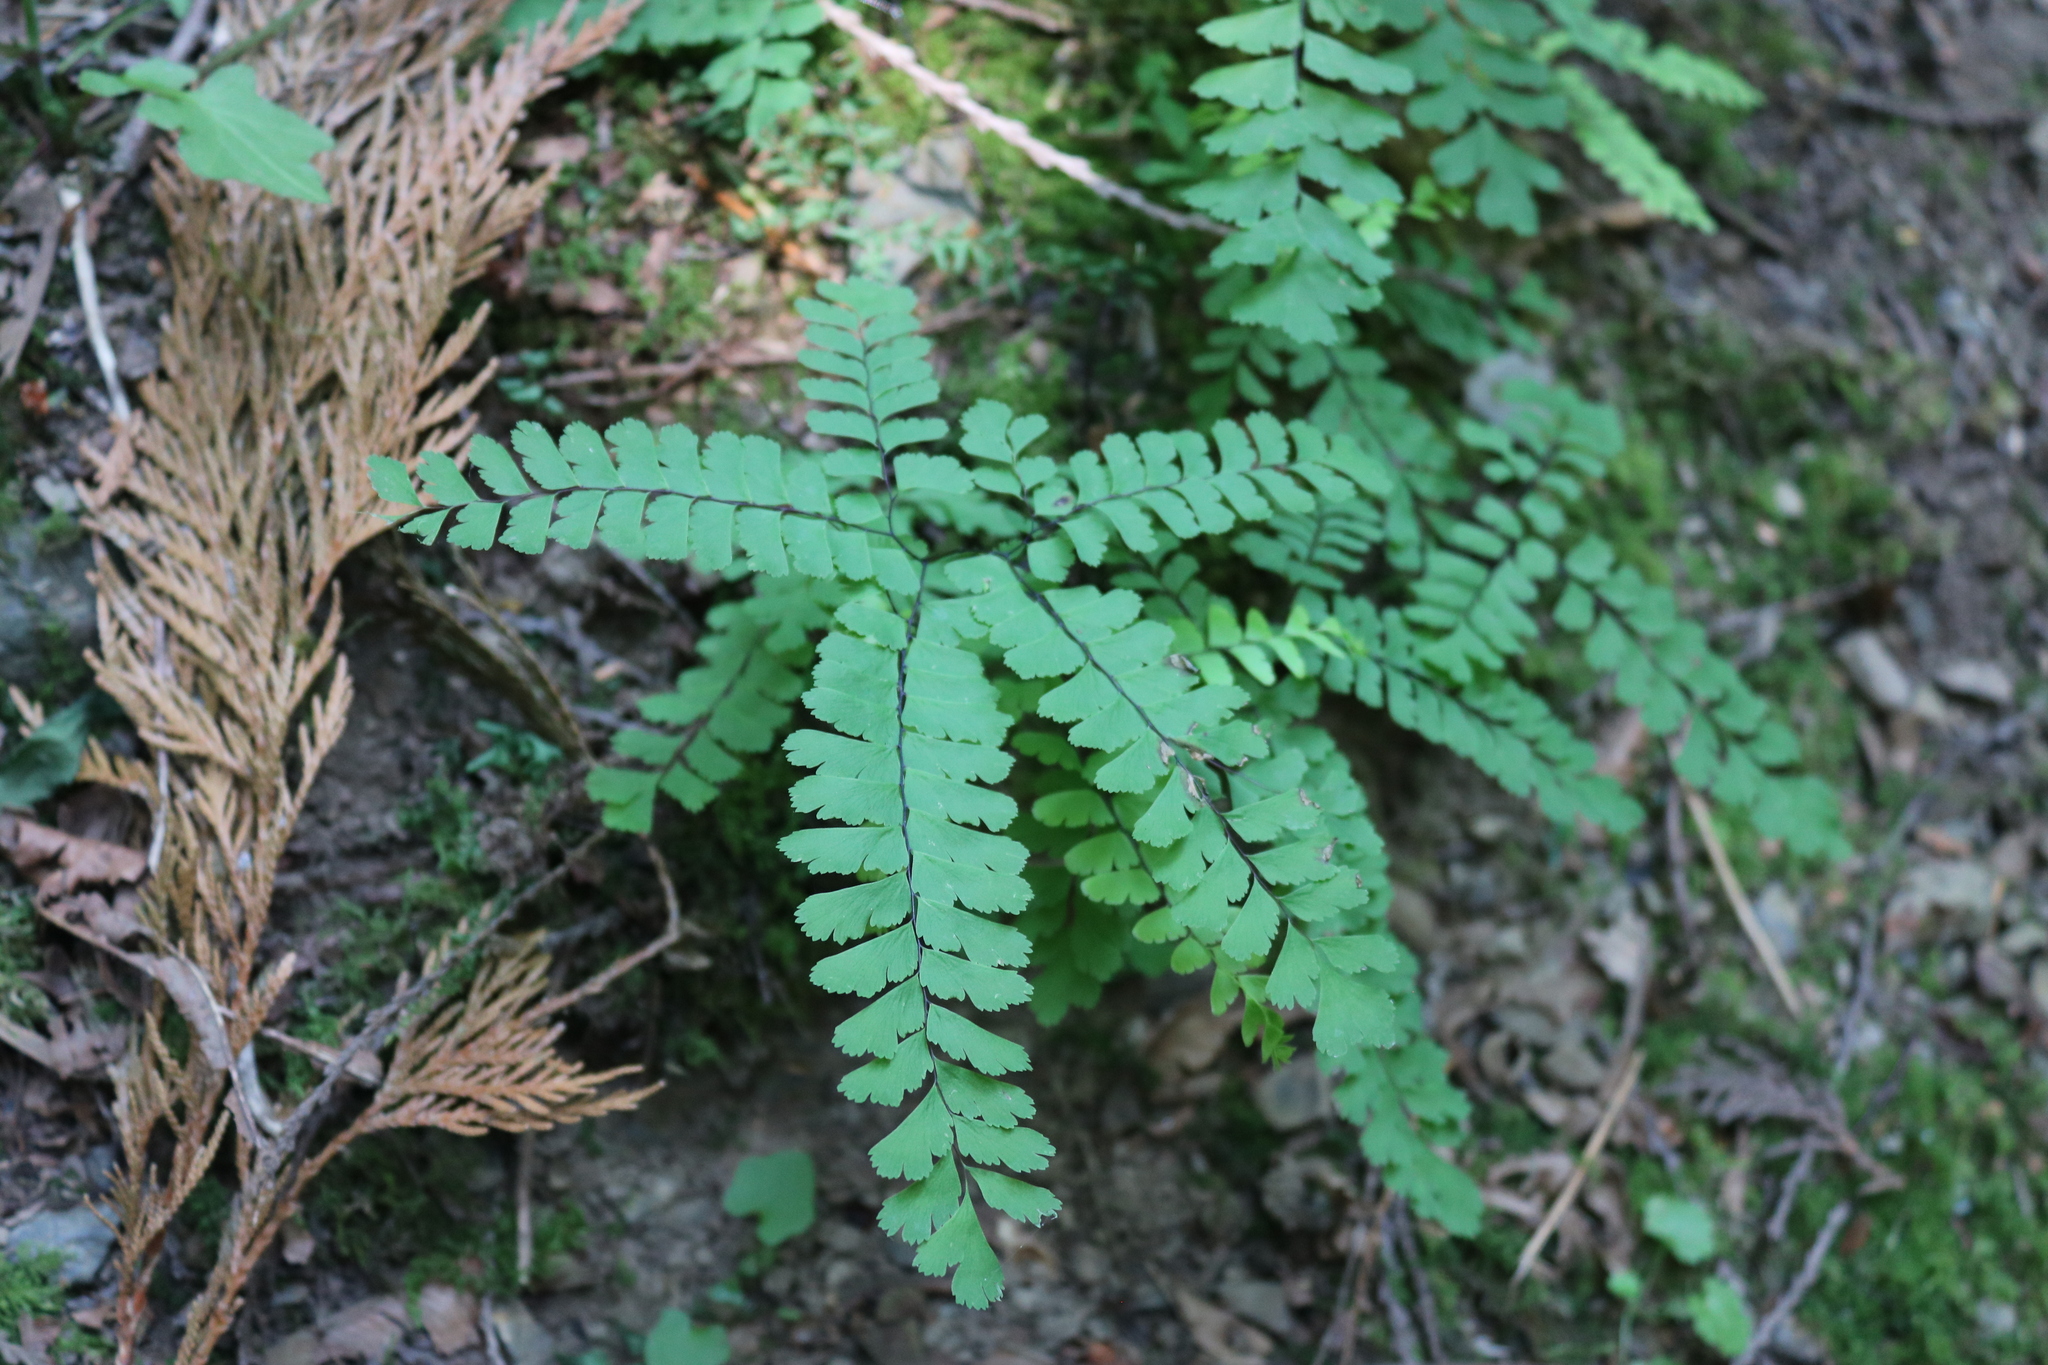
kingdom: Plantae
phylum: Tracheophyta
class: Polypodiopsida
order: Polypodiales
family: Pteridaceae
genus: Adiantum
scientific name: Adiantum aleuticum
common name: Aleutian maidenhair fern
